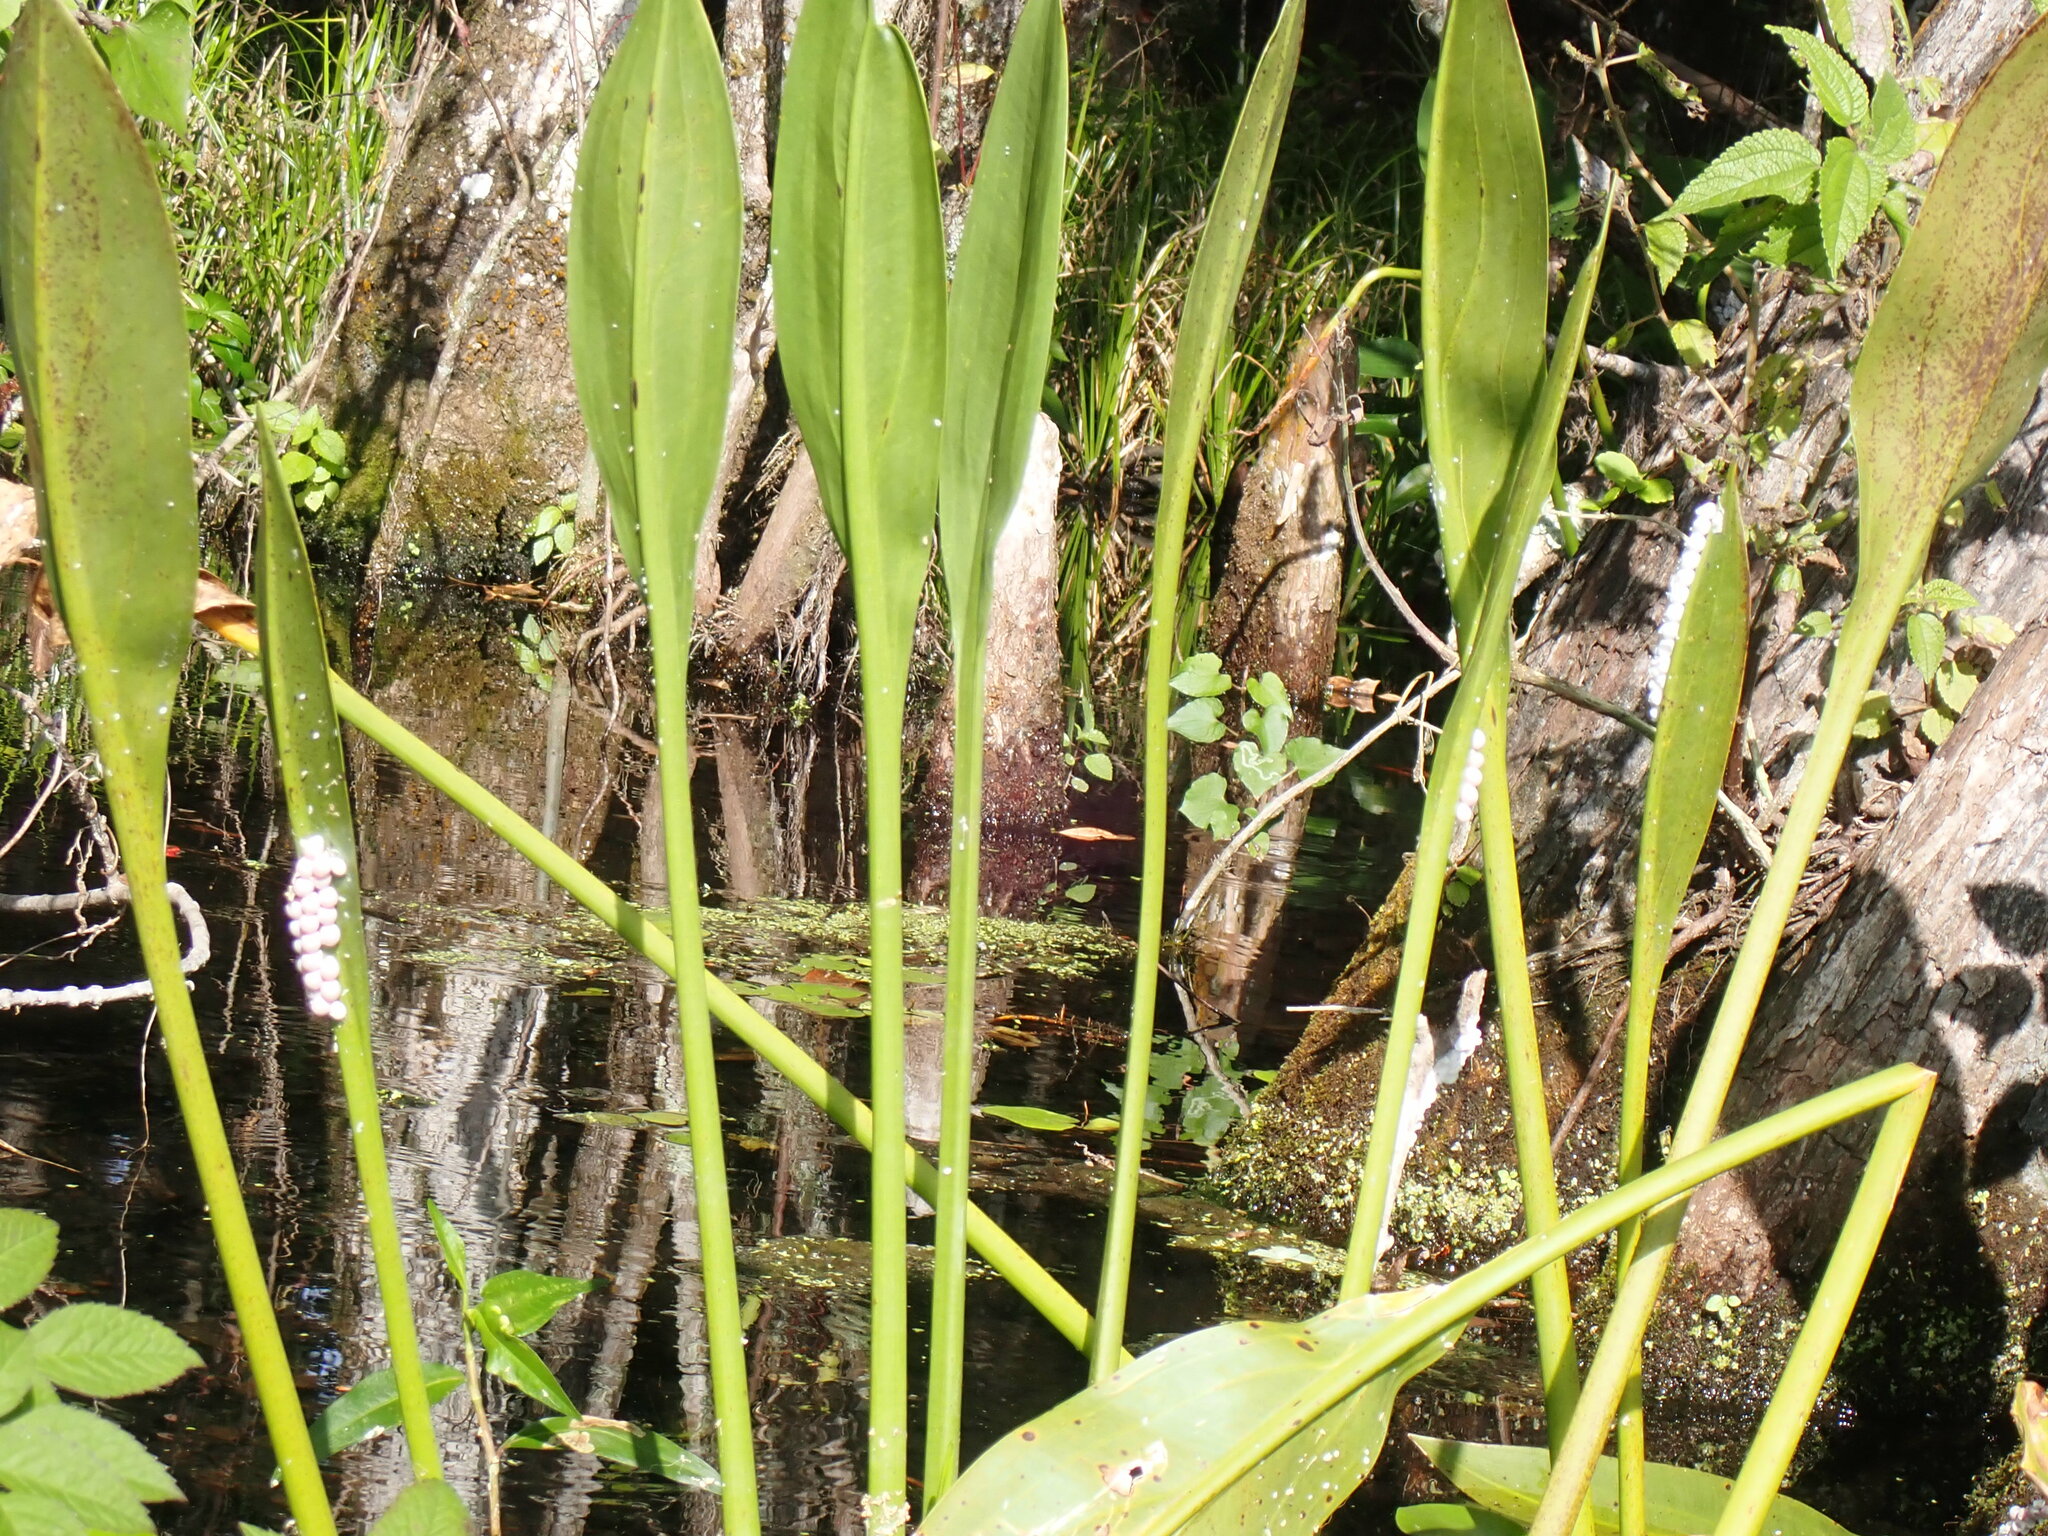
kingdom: Animalia
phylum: Mollusca
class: Gastropoda
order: Architaenioglossa
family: Ampullariidae
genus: Pomacea
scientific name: Pomacea paludosa
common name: Florida applesnail
